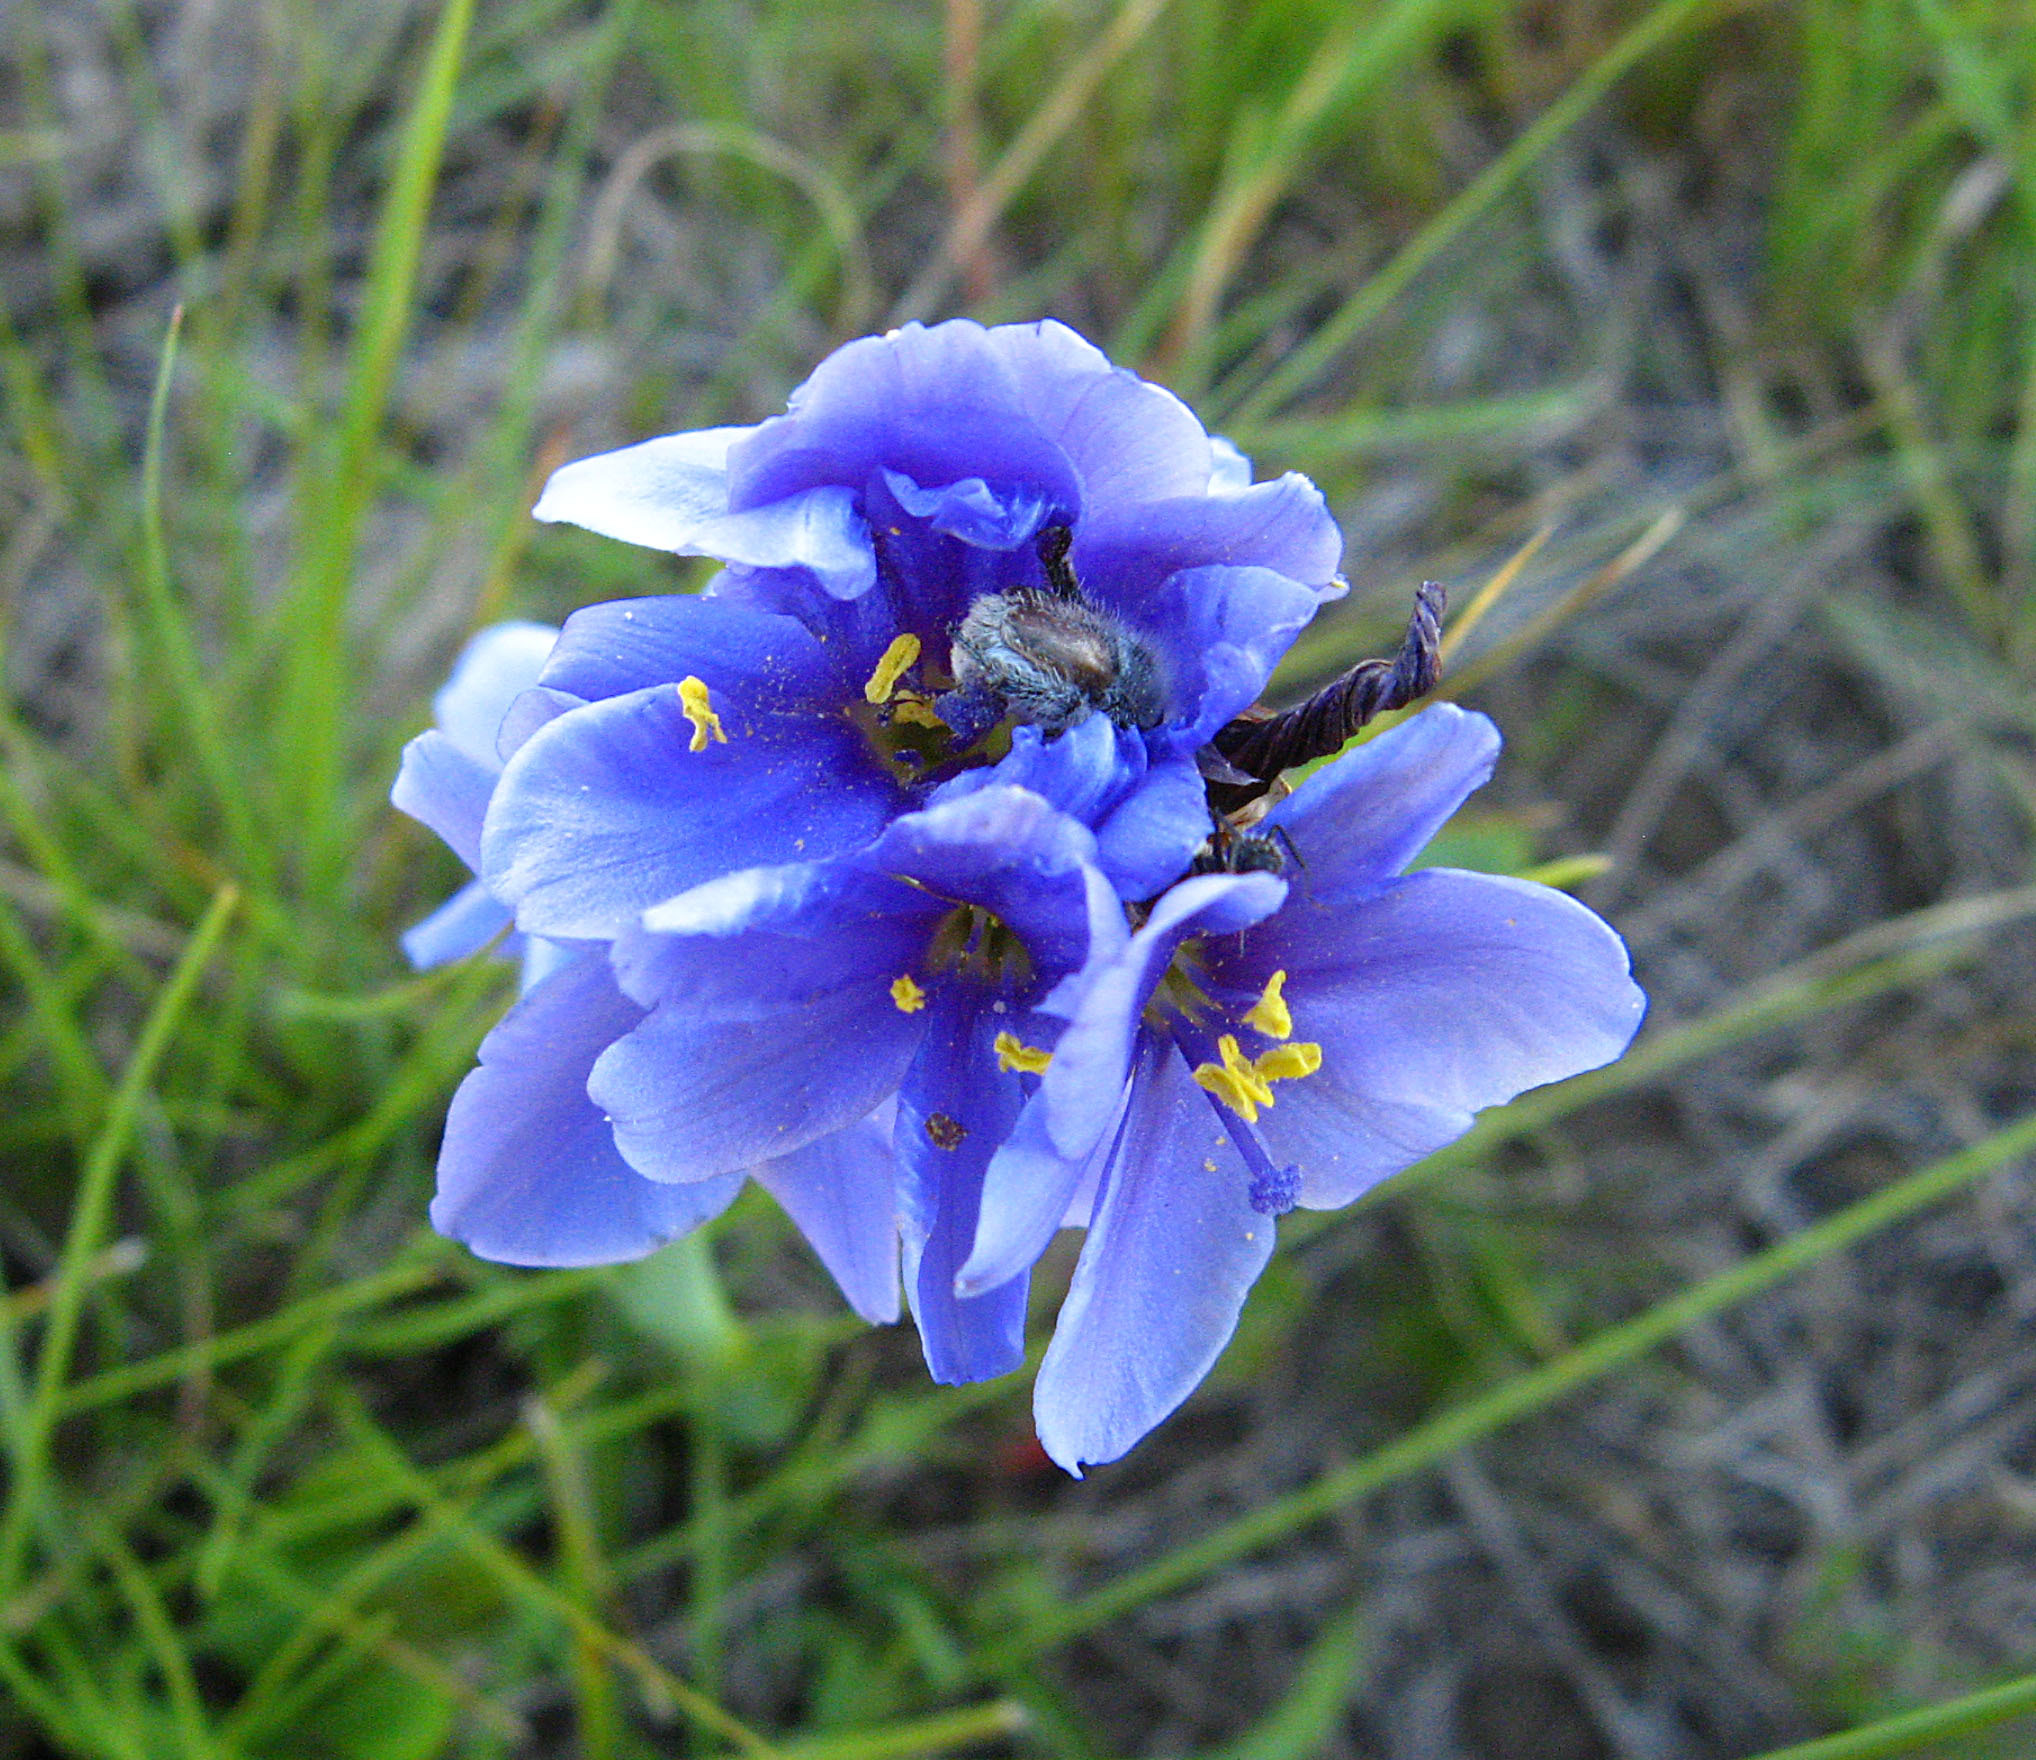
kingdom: Plantae
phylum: Tracheophyta
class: Liliopsida
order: Asparagales
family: Iridaceae
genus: Aristea
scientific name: Aristea torulosa
